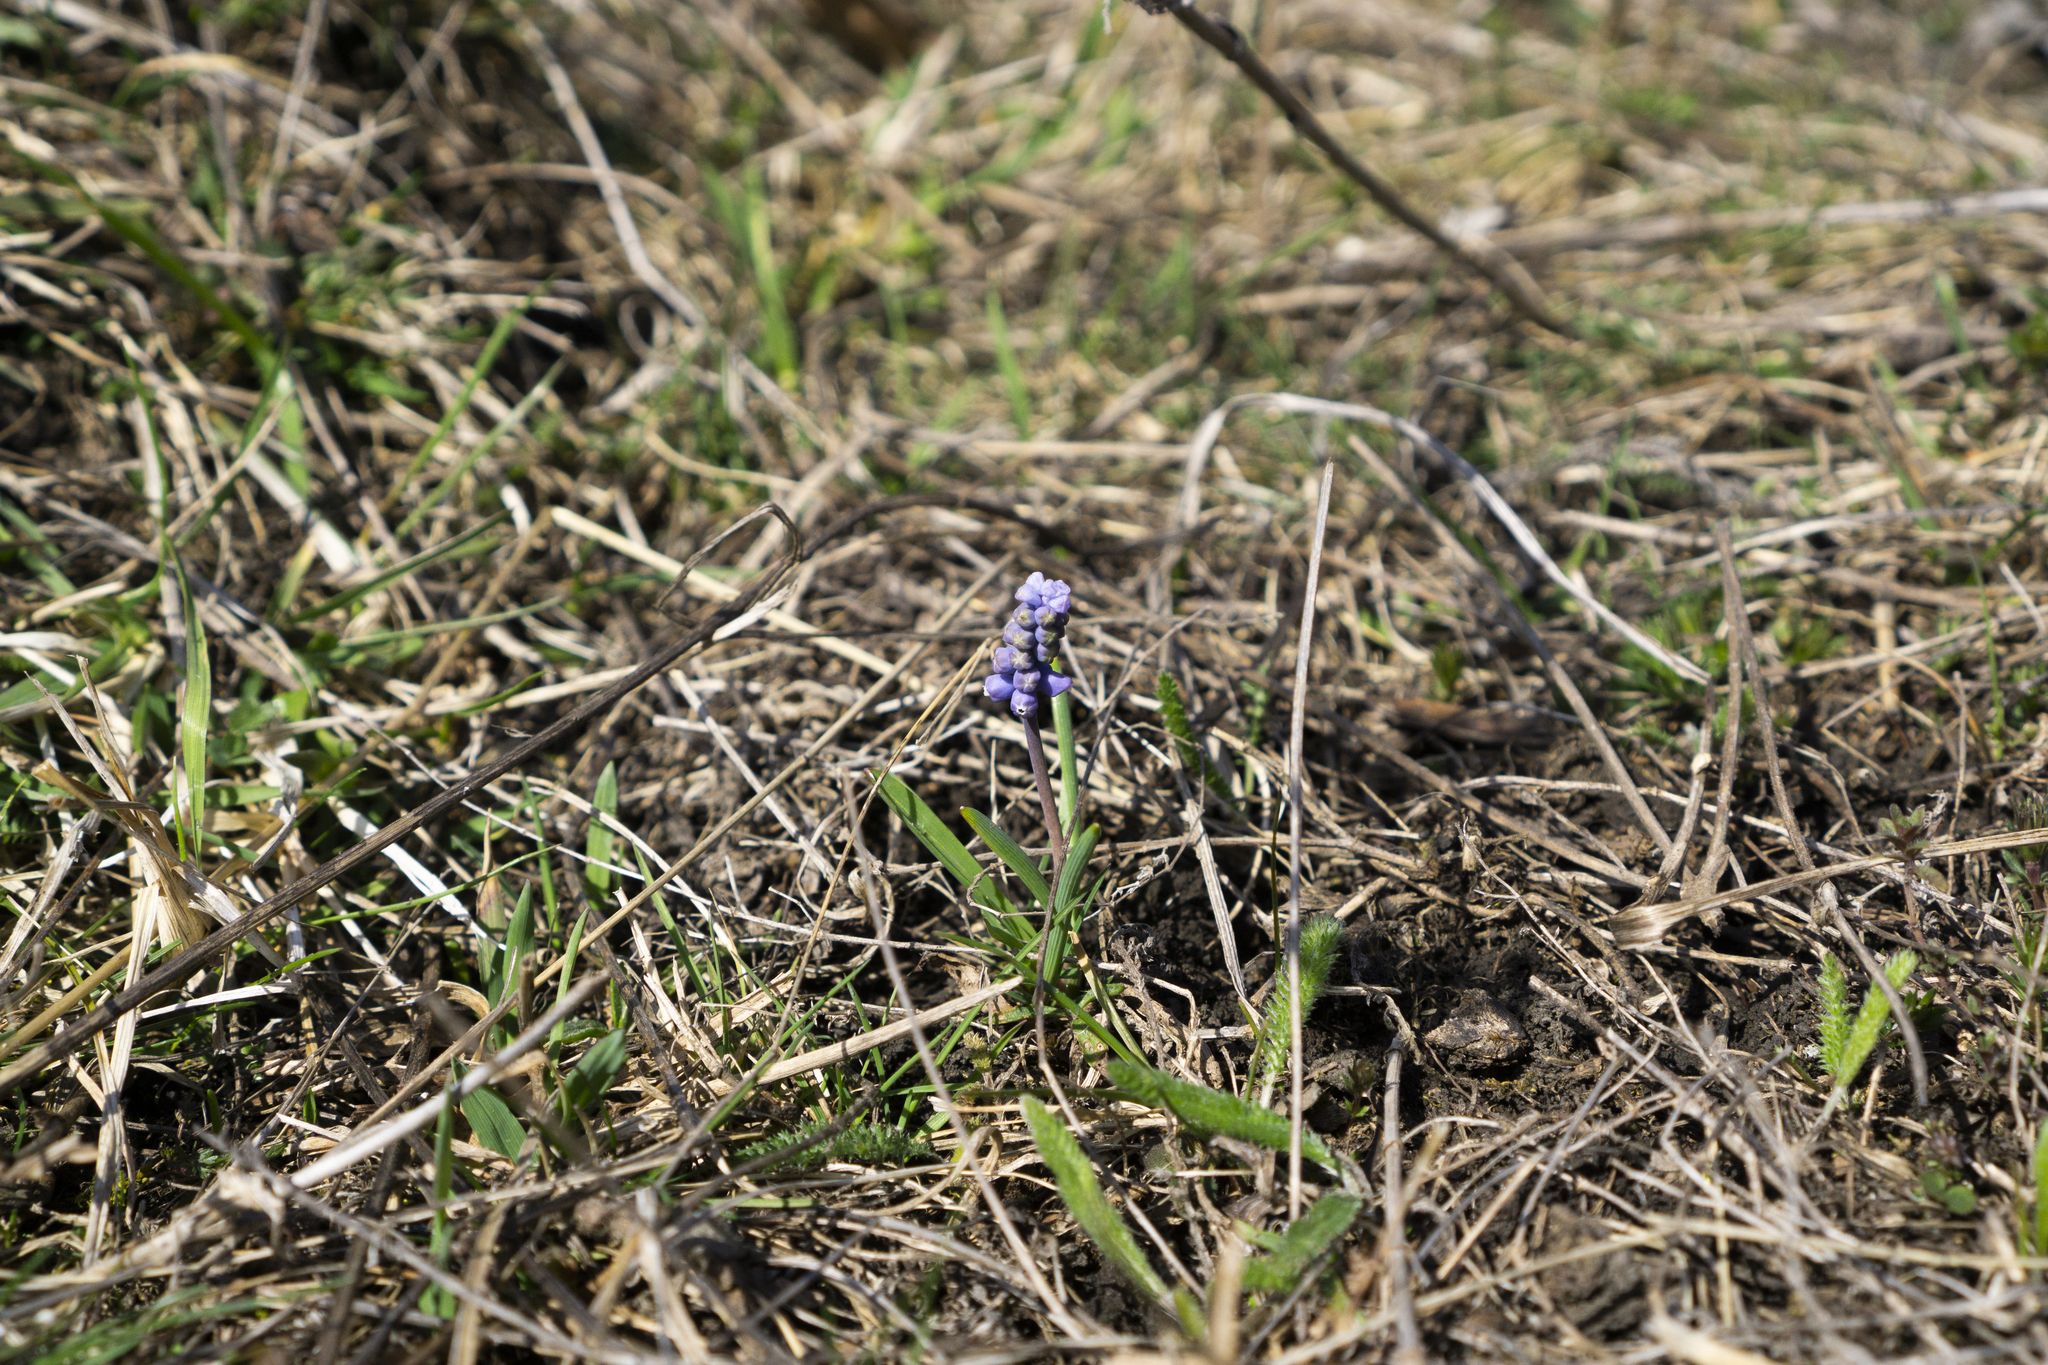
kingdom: Plantae
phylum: Tracheophyta
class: Liliopsida
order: Asparagales
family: Asparagaceae
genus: Muscari
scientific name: Muscari botryoides
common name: Compact grape-hyacinth
